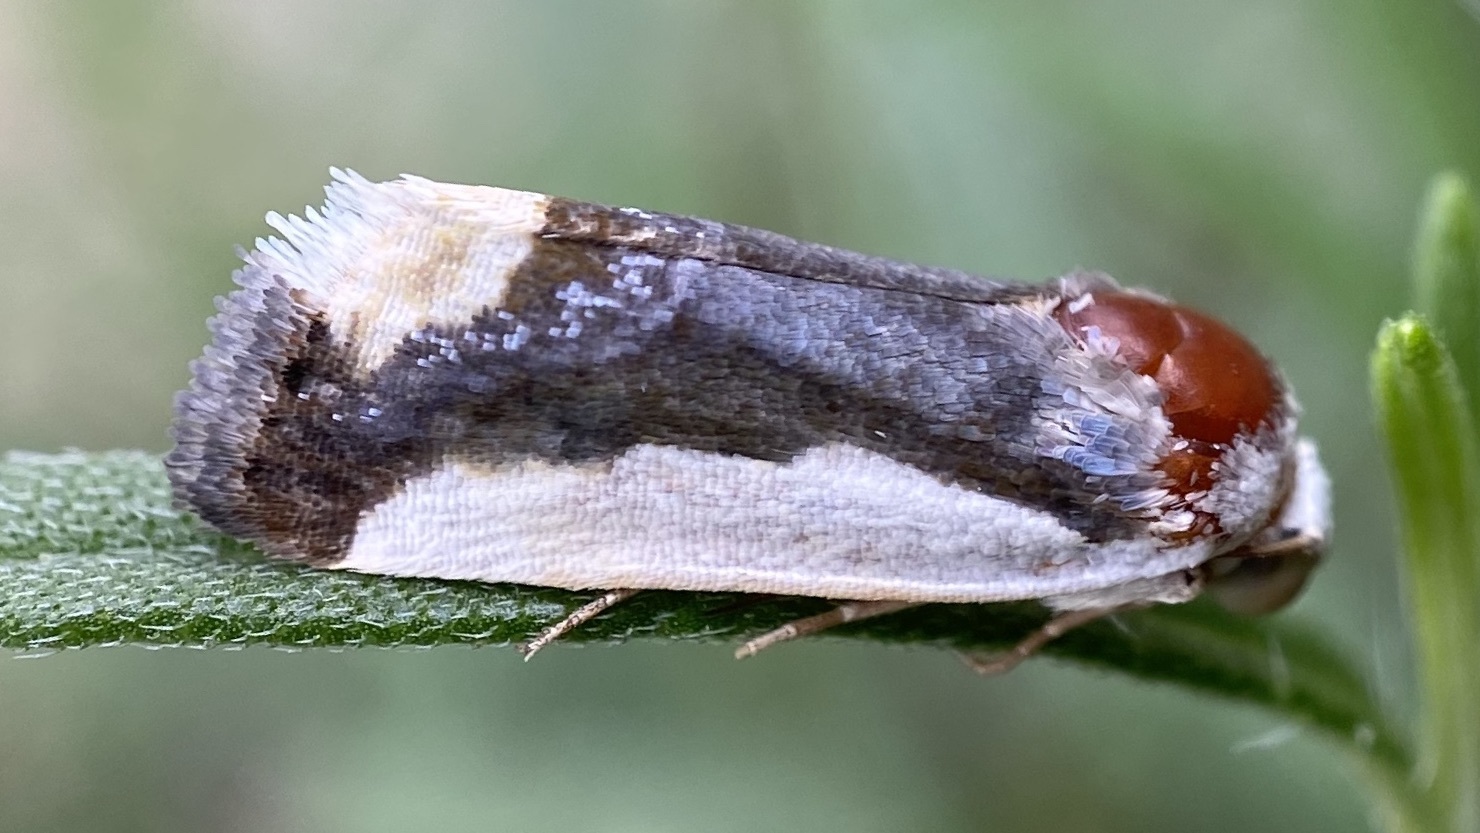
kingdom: Animalia
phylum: Arthropoda
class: Insecta
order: Lepidoptera
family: Noctuidae
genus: Acontia
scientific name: Acontia Tarache expolita
